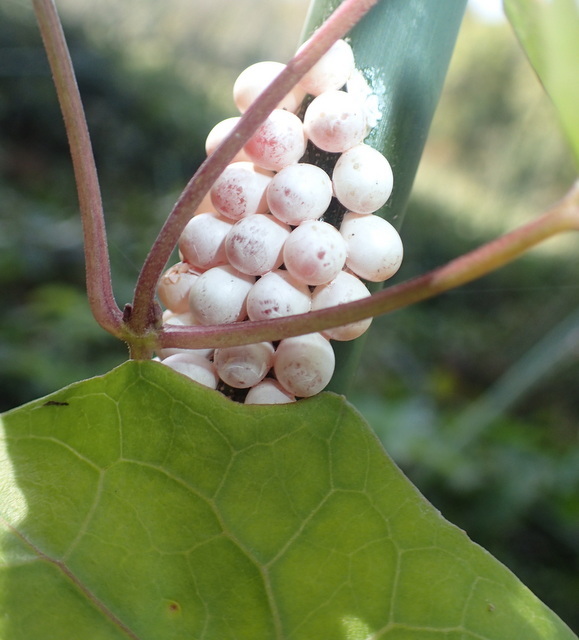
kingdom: Animalia
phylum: Mollusca
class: Gastropoda
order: Architaenioglossa
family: Ampullariidae
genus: Pomacea
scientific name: Pomacea paludosa
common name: Florida applesnail
